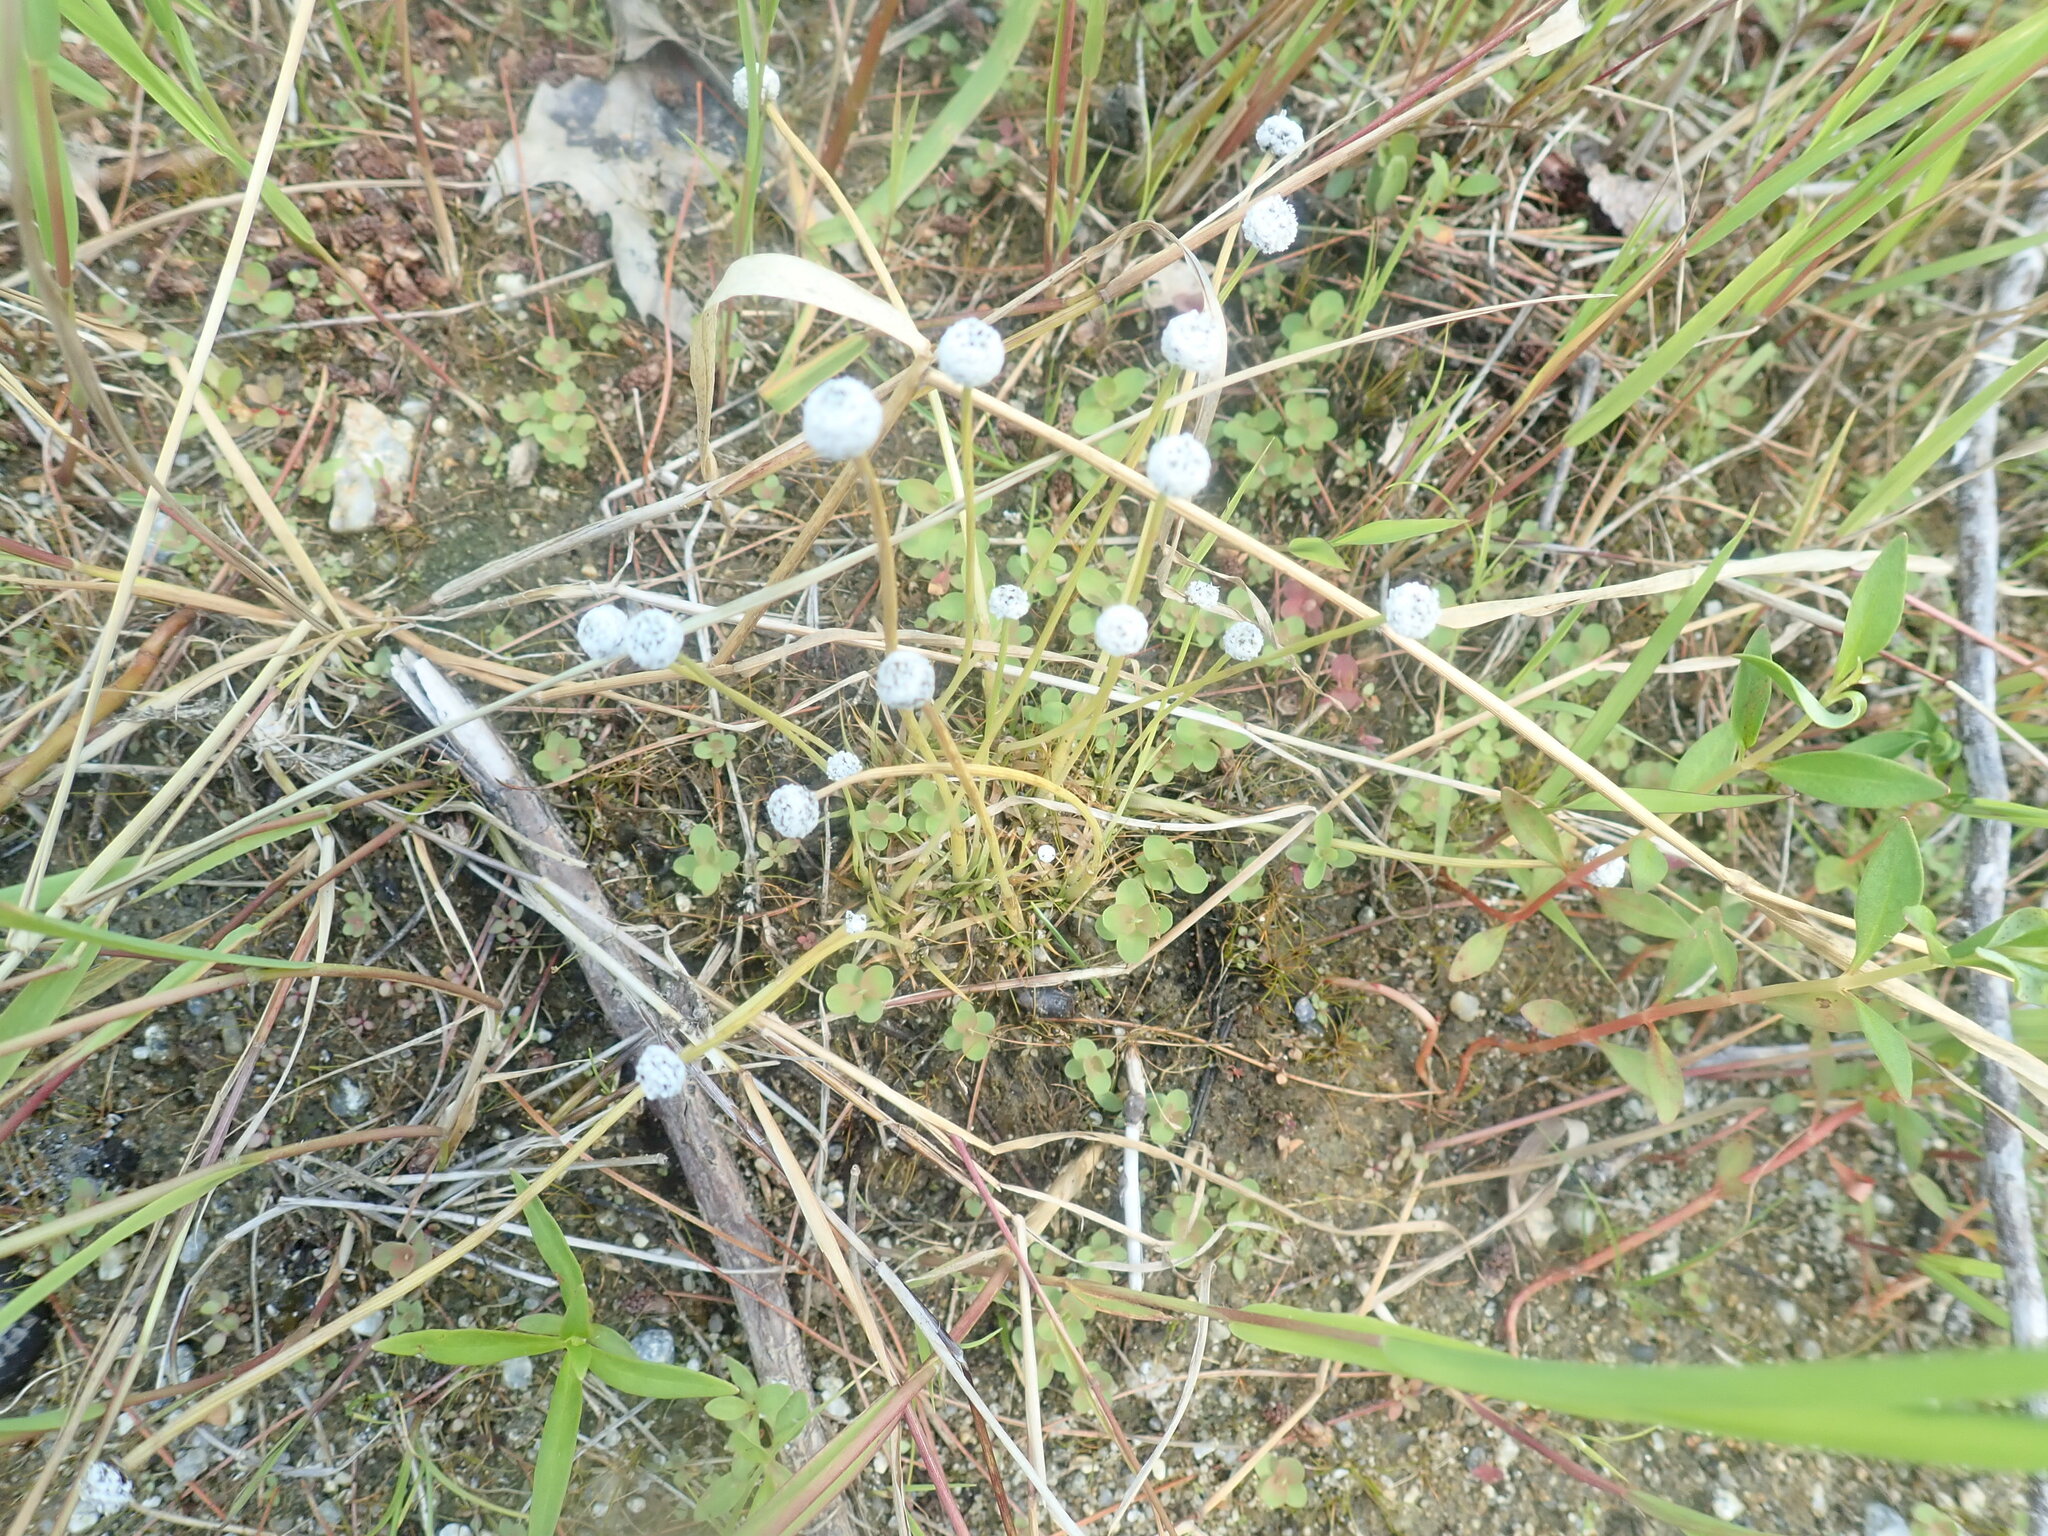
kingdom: Plantae
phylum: Tracheophyta
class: Liliopsida
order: Poales
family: Eriocaulaceae
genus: Eriocaulon
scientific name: Eriocaulon aquaticum
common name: Pipewort
